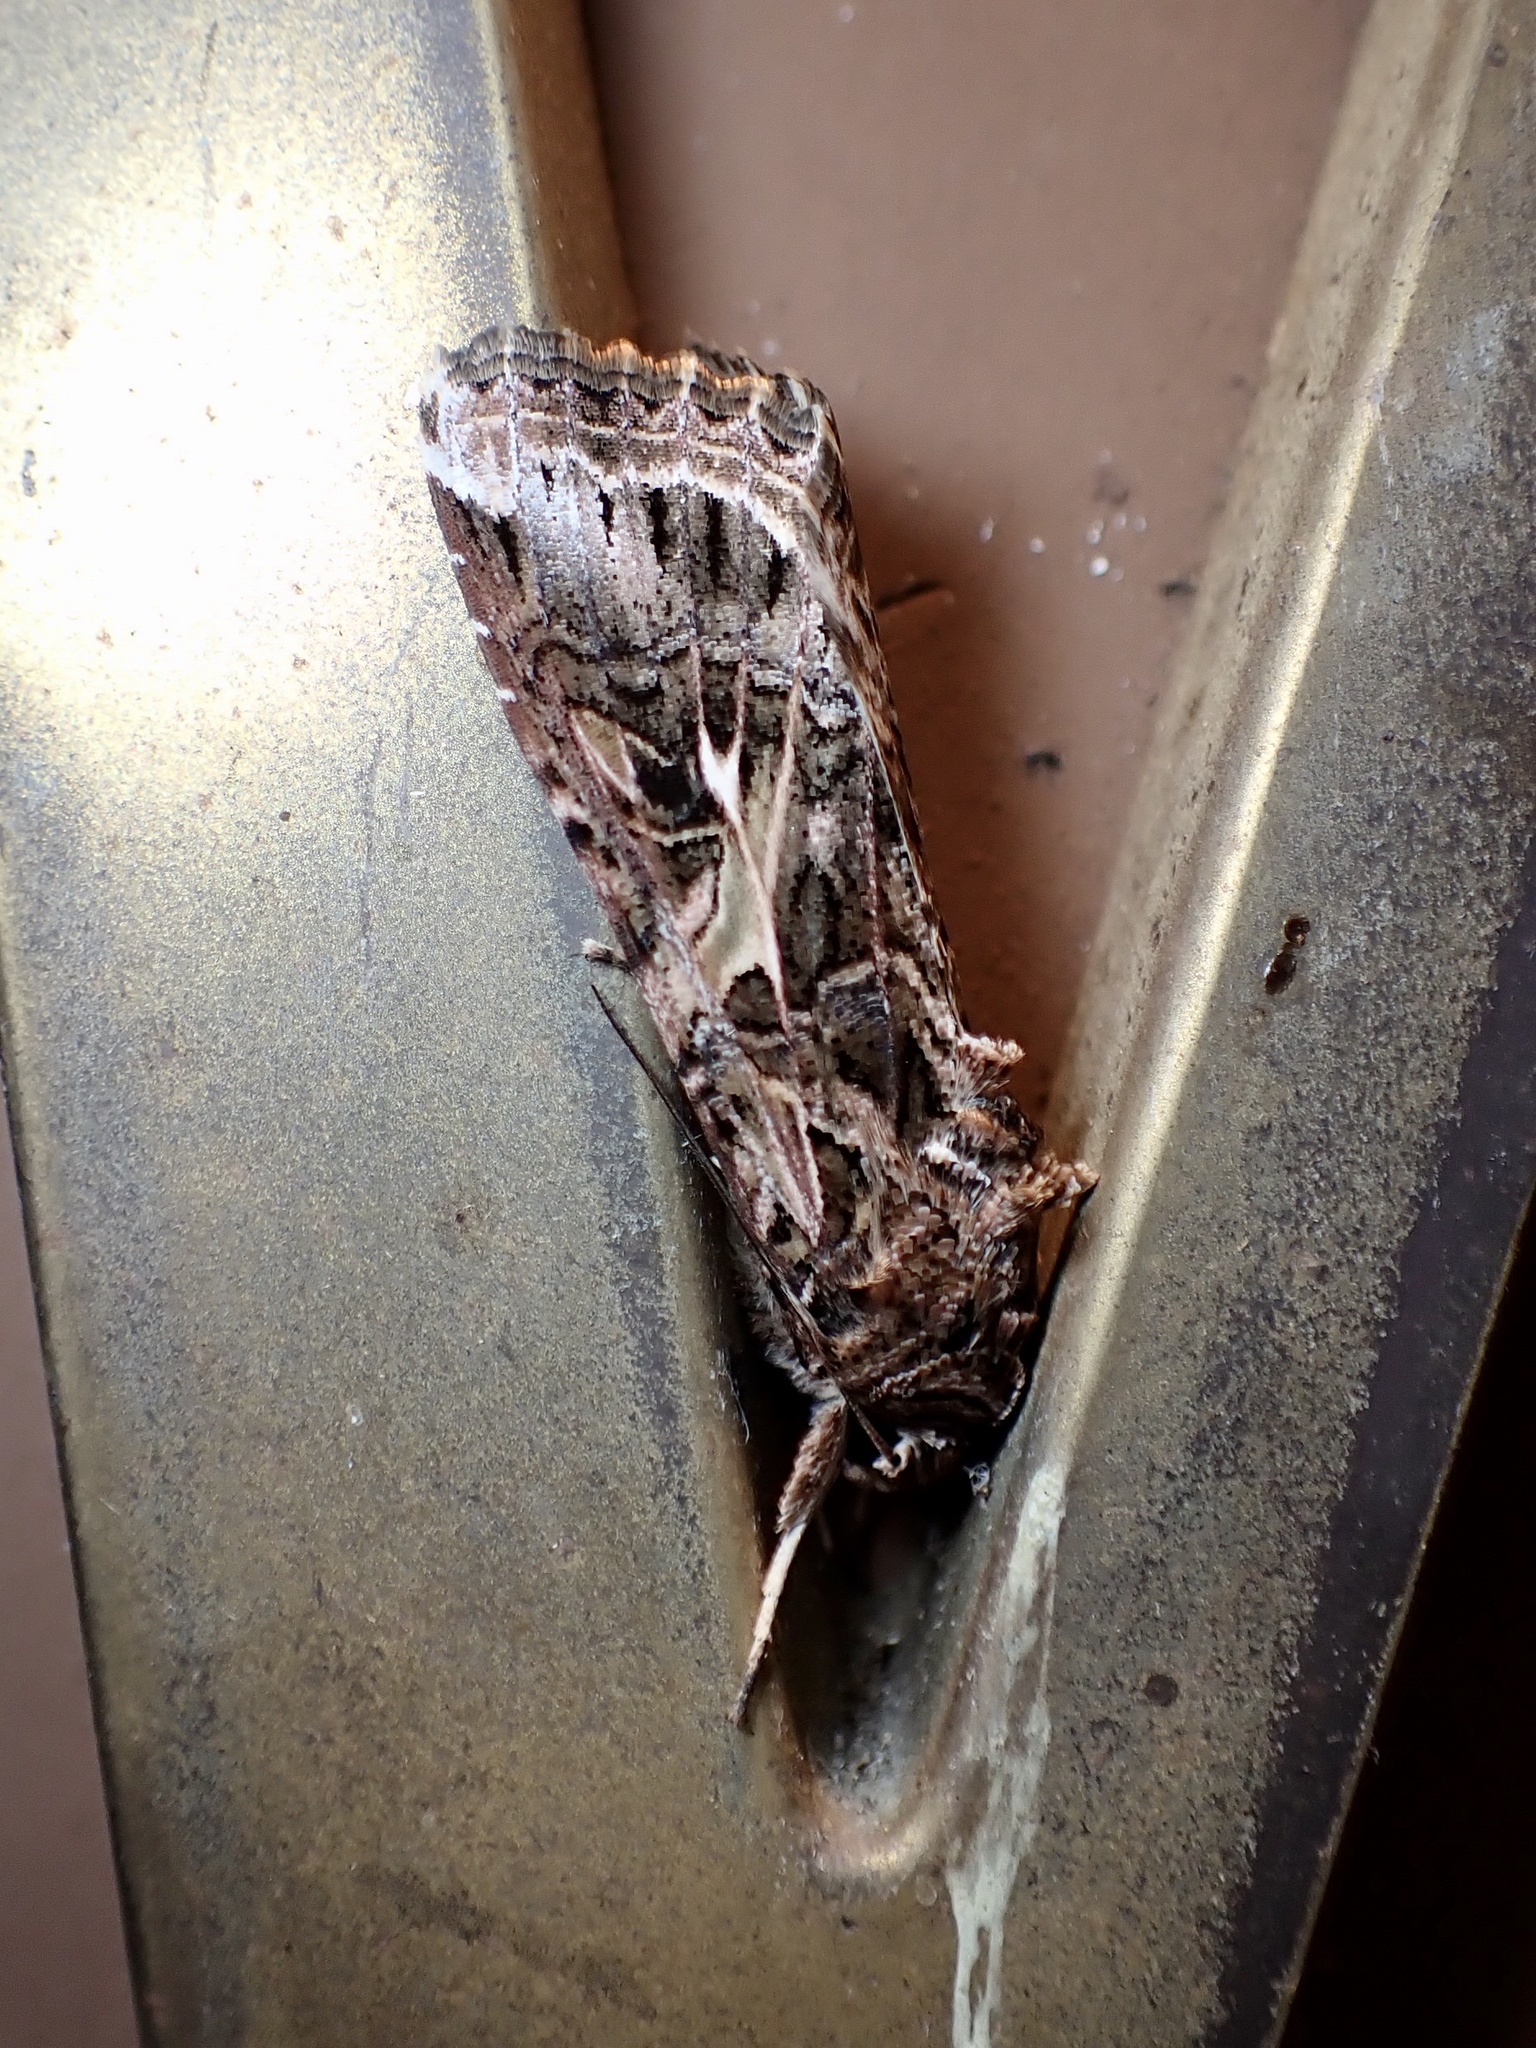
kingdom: Animalia
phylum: Arthropoda
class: Insecta
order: Lepidoptera
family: Noctuidae
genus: Spodoptera
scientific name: Spodoptera ornithogalli
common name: Yellow-striped armyworm
